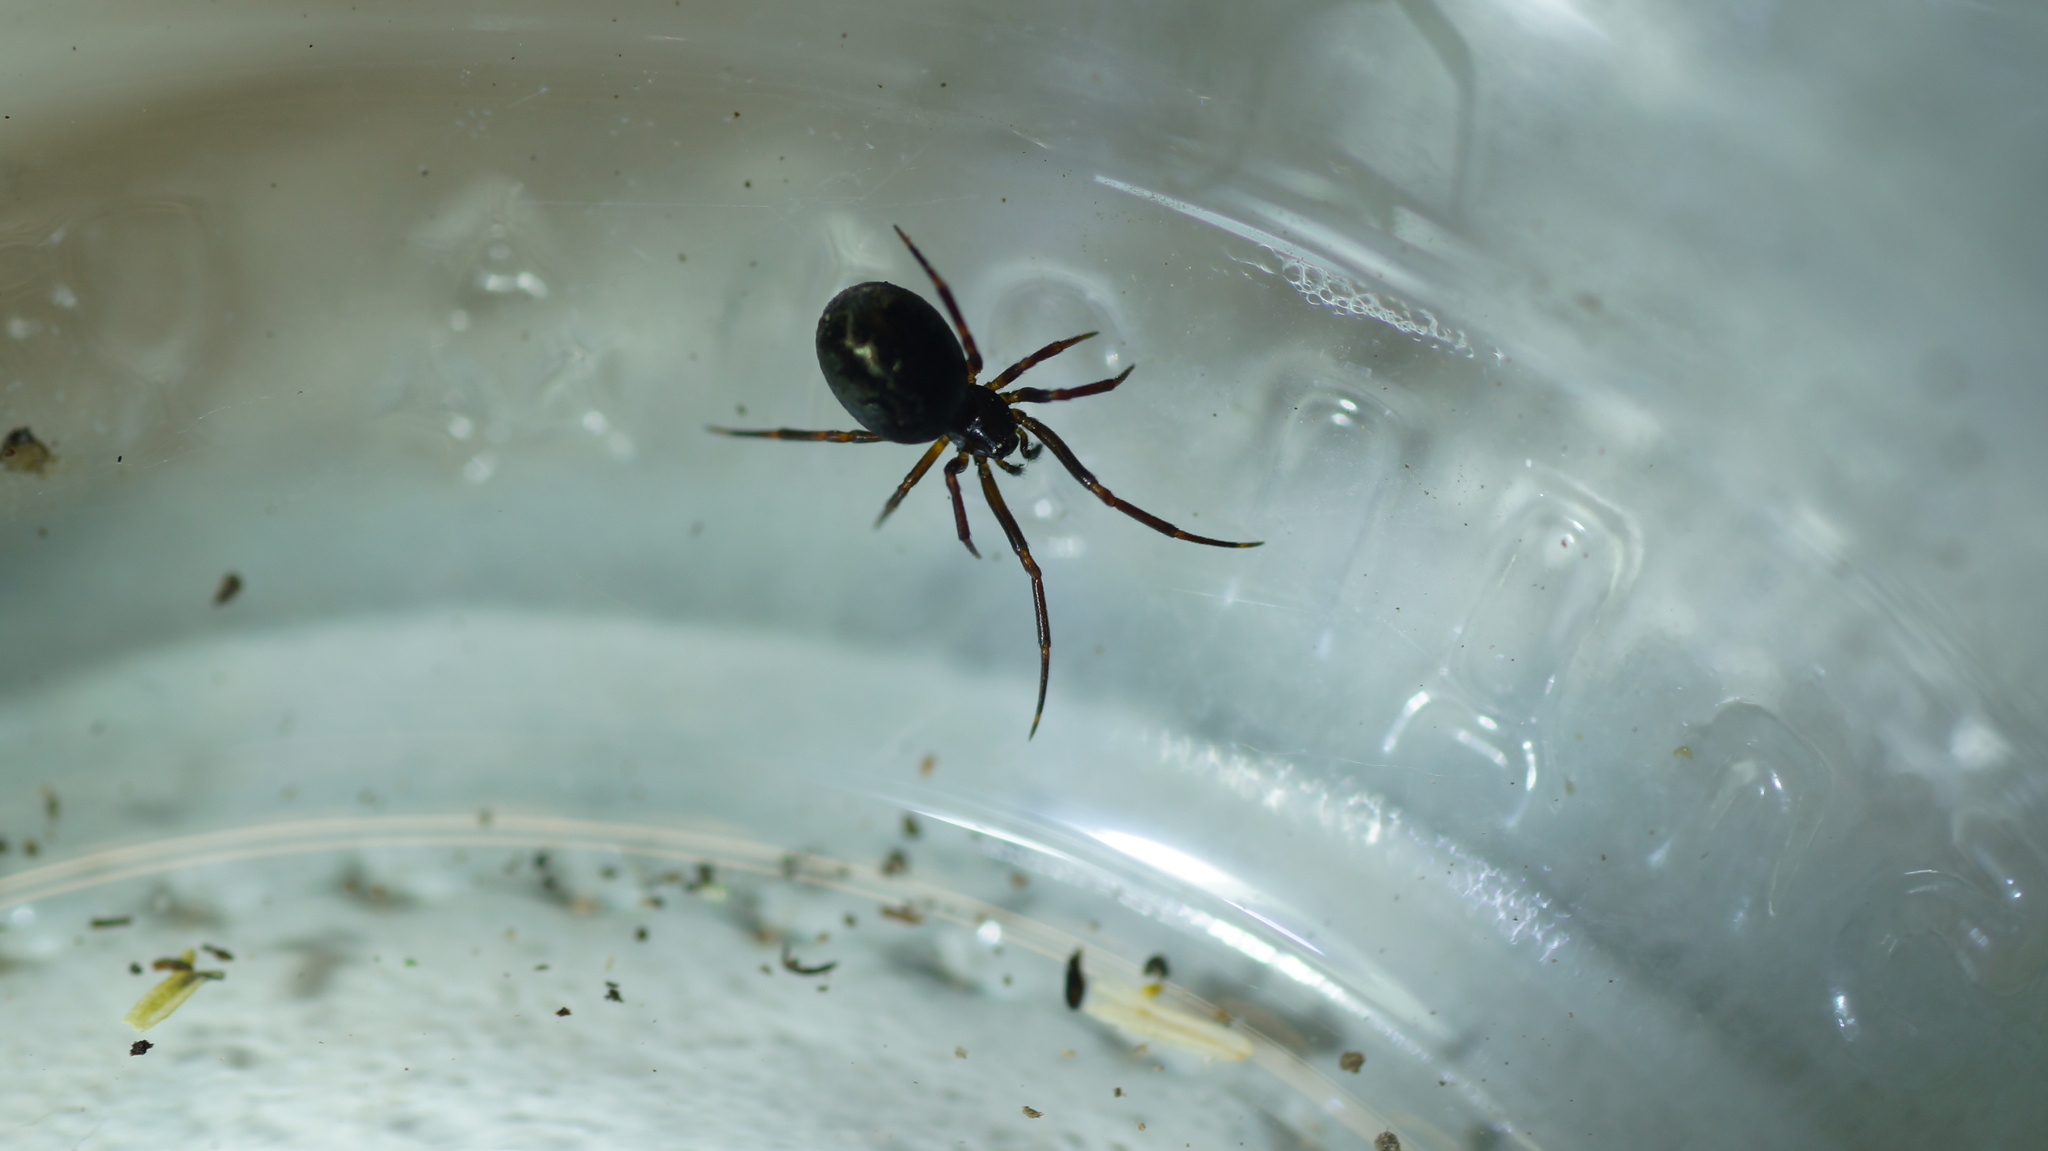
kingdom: Animalia
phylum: Arthropoda
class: Arachnida
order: Araneae
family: Theridiidae
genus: Lasaeola
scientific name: Lasaeola tristis
